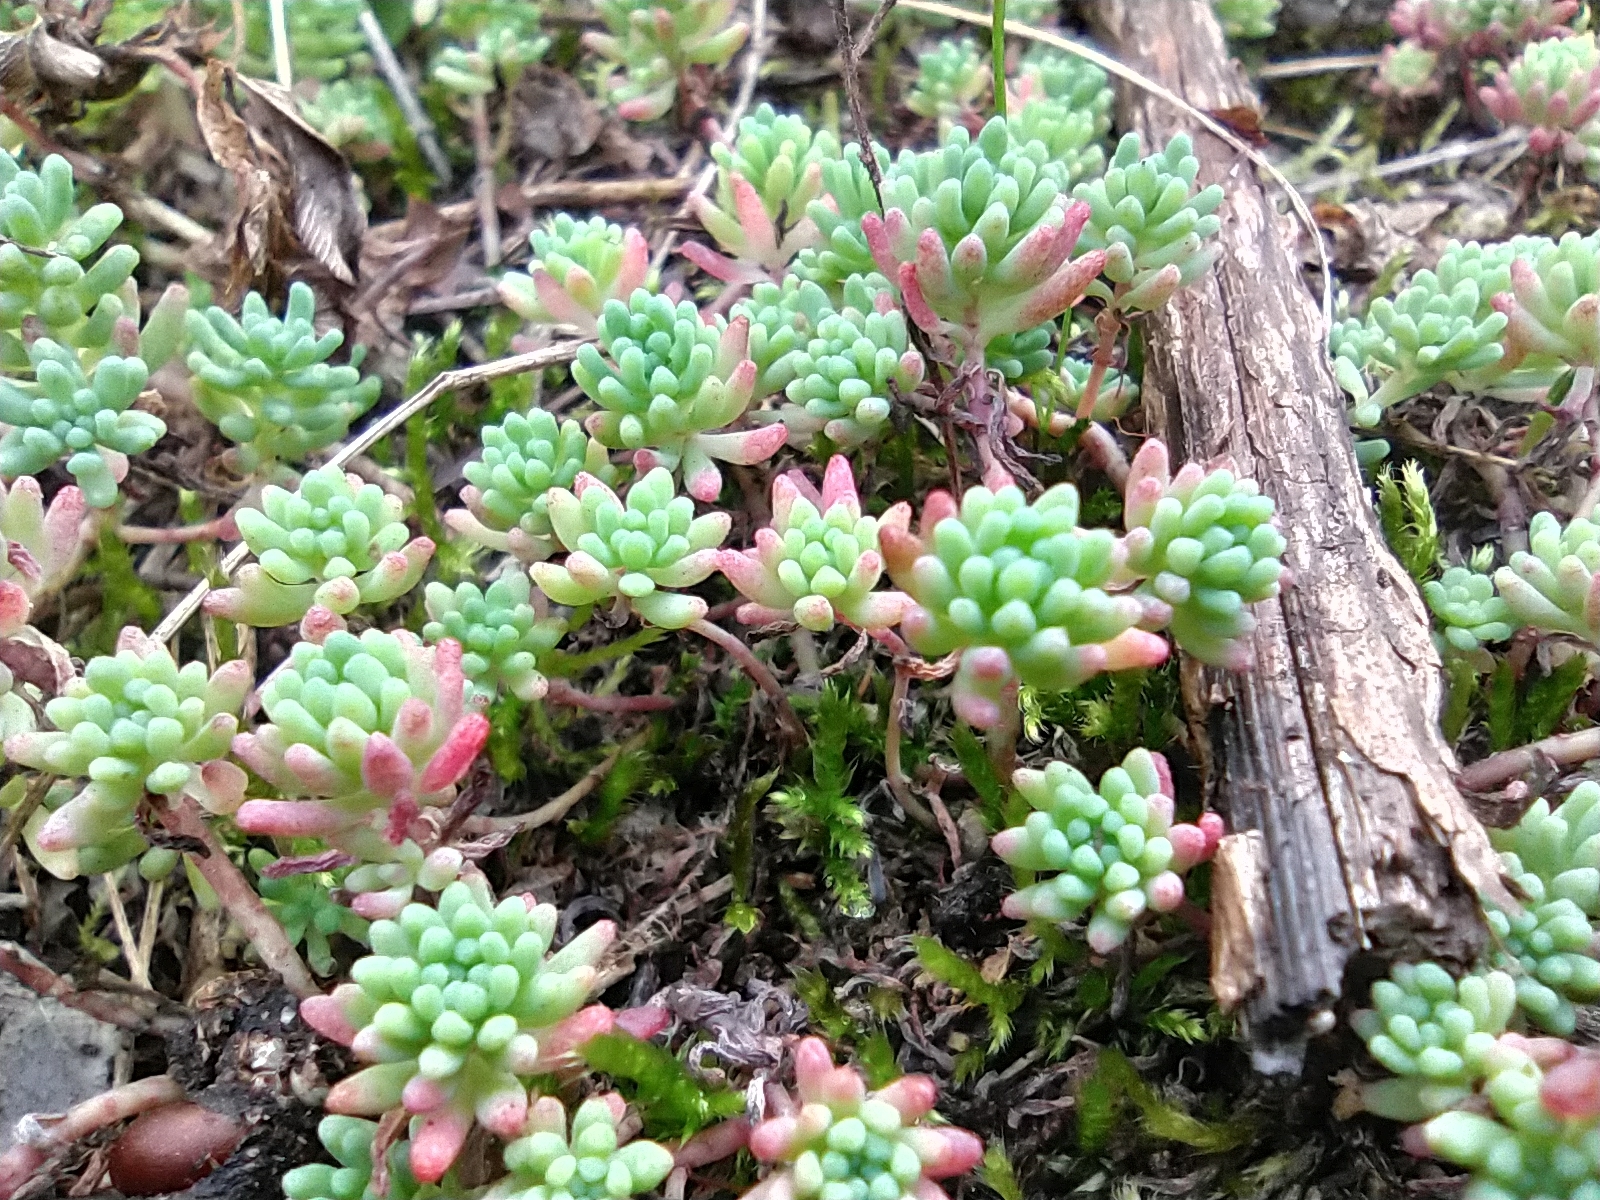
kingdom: Plantae
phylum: Tracheophyta
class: Magnoliopsida
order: Saxifragales
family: Crassulaceae
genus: Sedum
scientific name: Sedum pallidum
